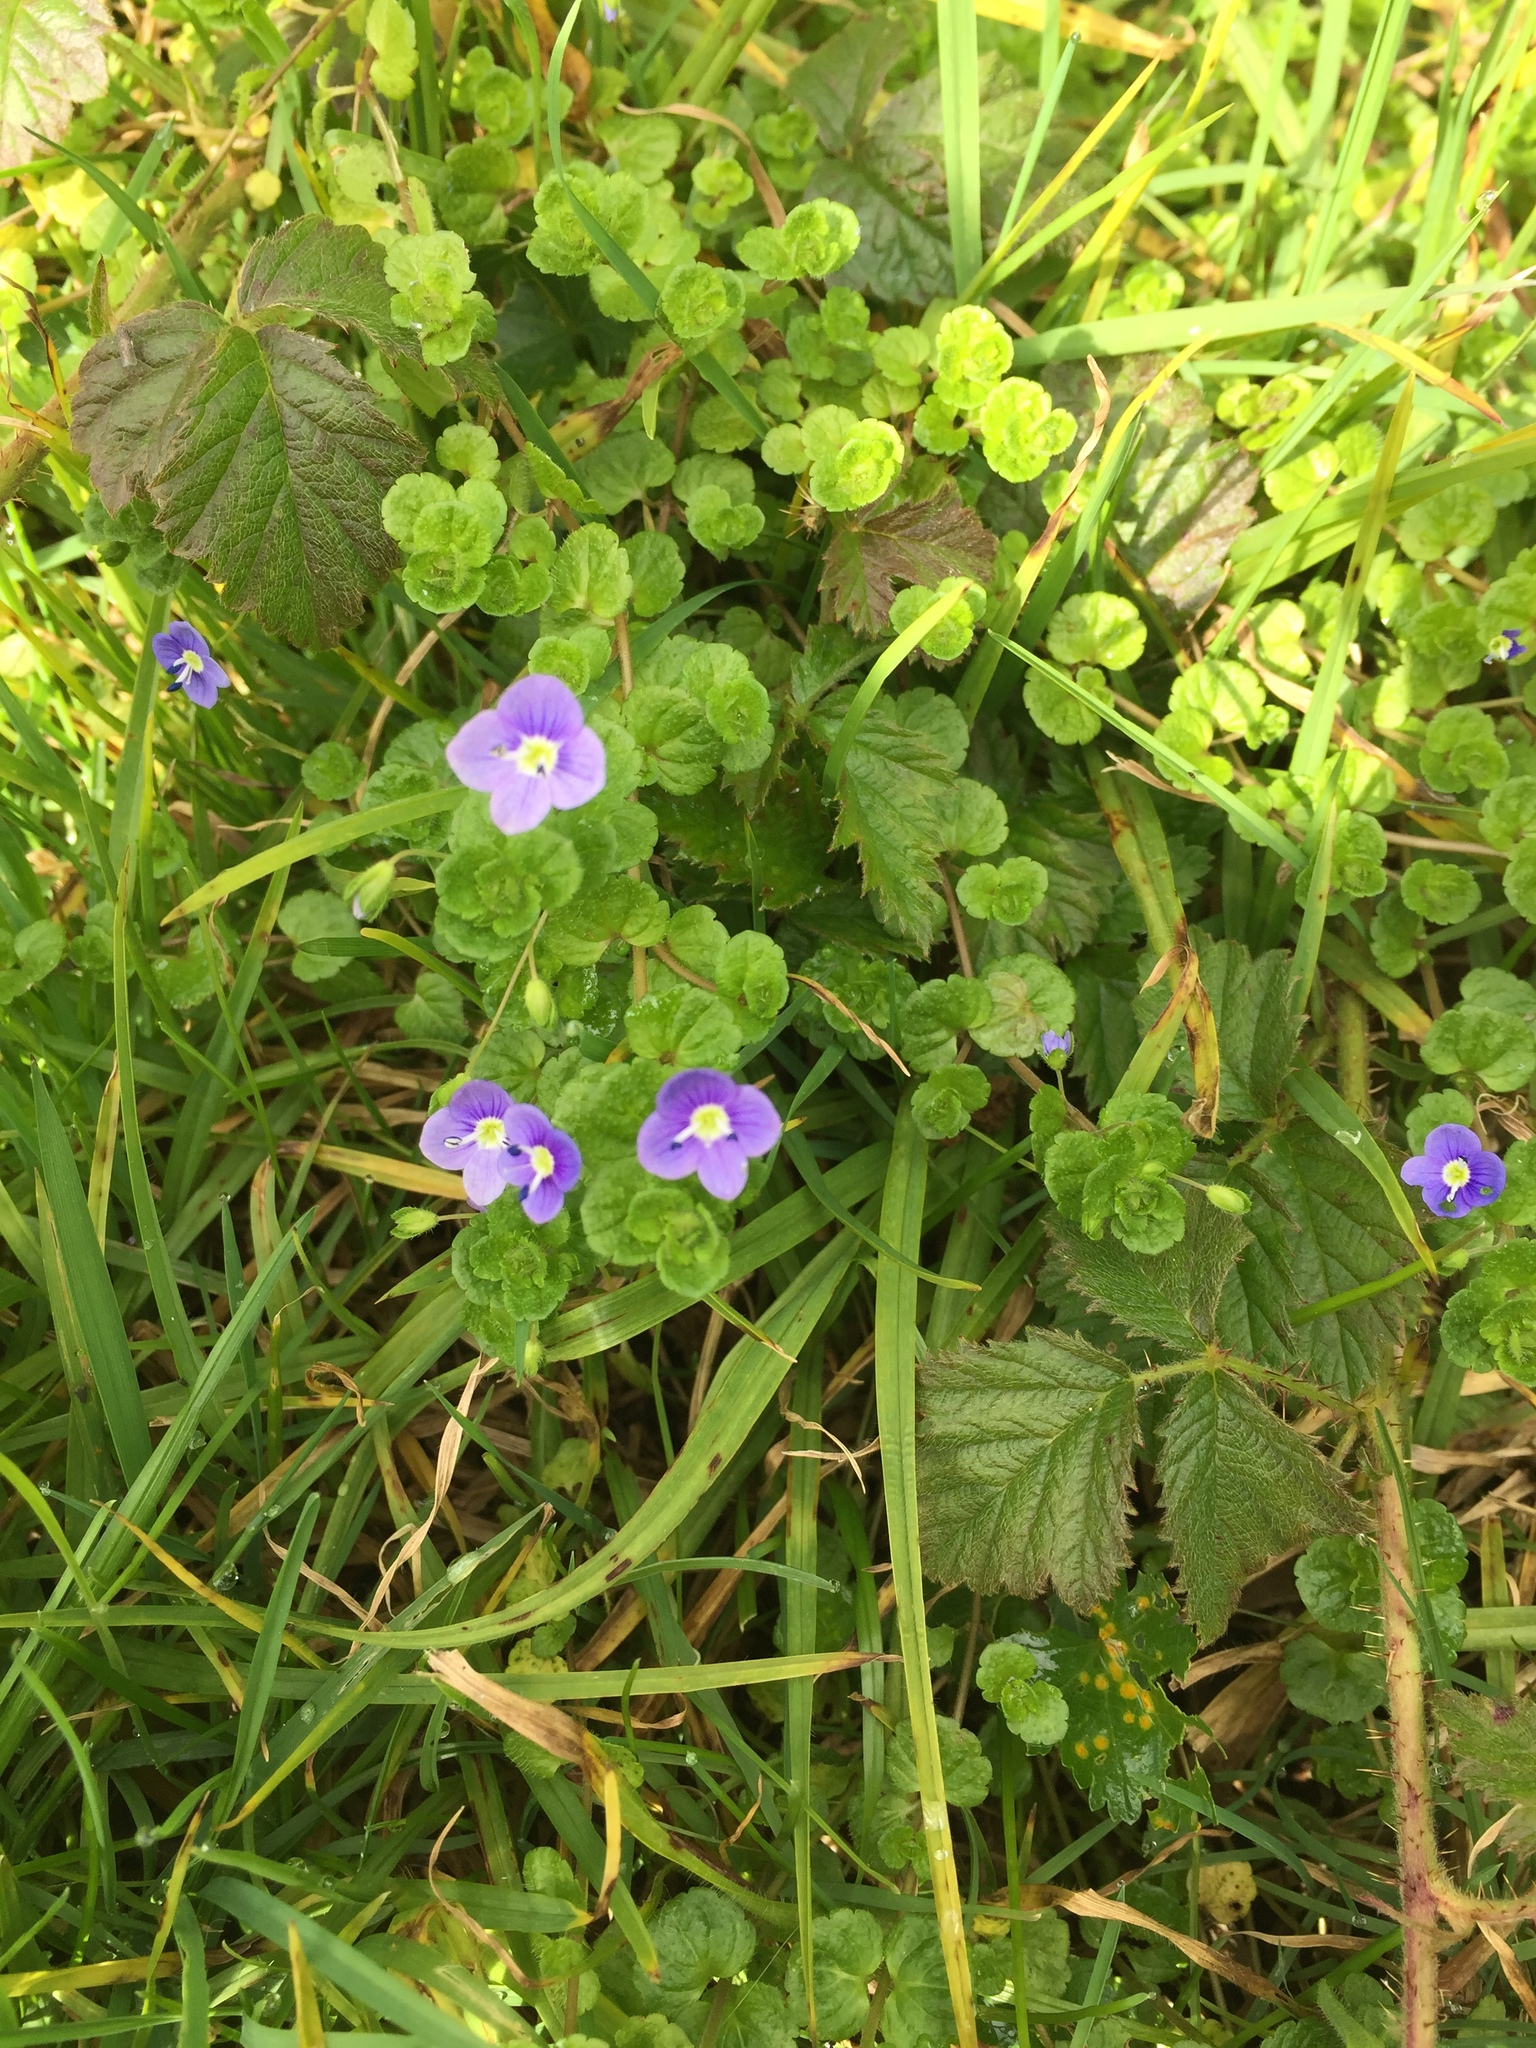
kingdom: Plantae
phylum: Tracheophyta
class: Magnoliopsida
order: Lamiales
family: Plantaginaceae
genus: Veronica
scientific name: Veronica filiformis
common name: Slender speedwell
